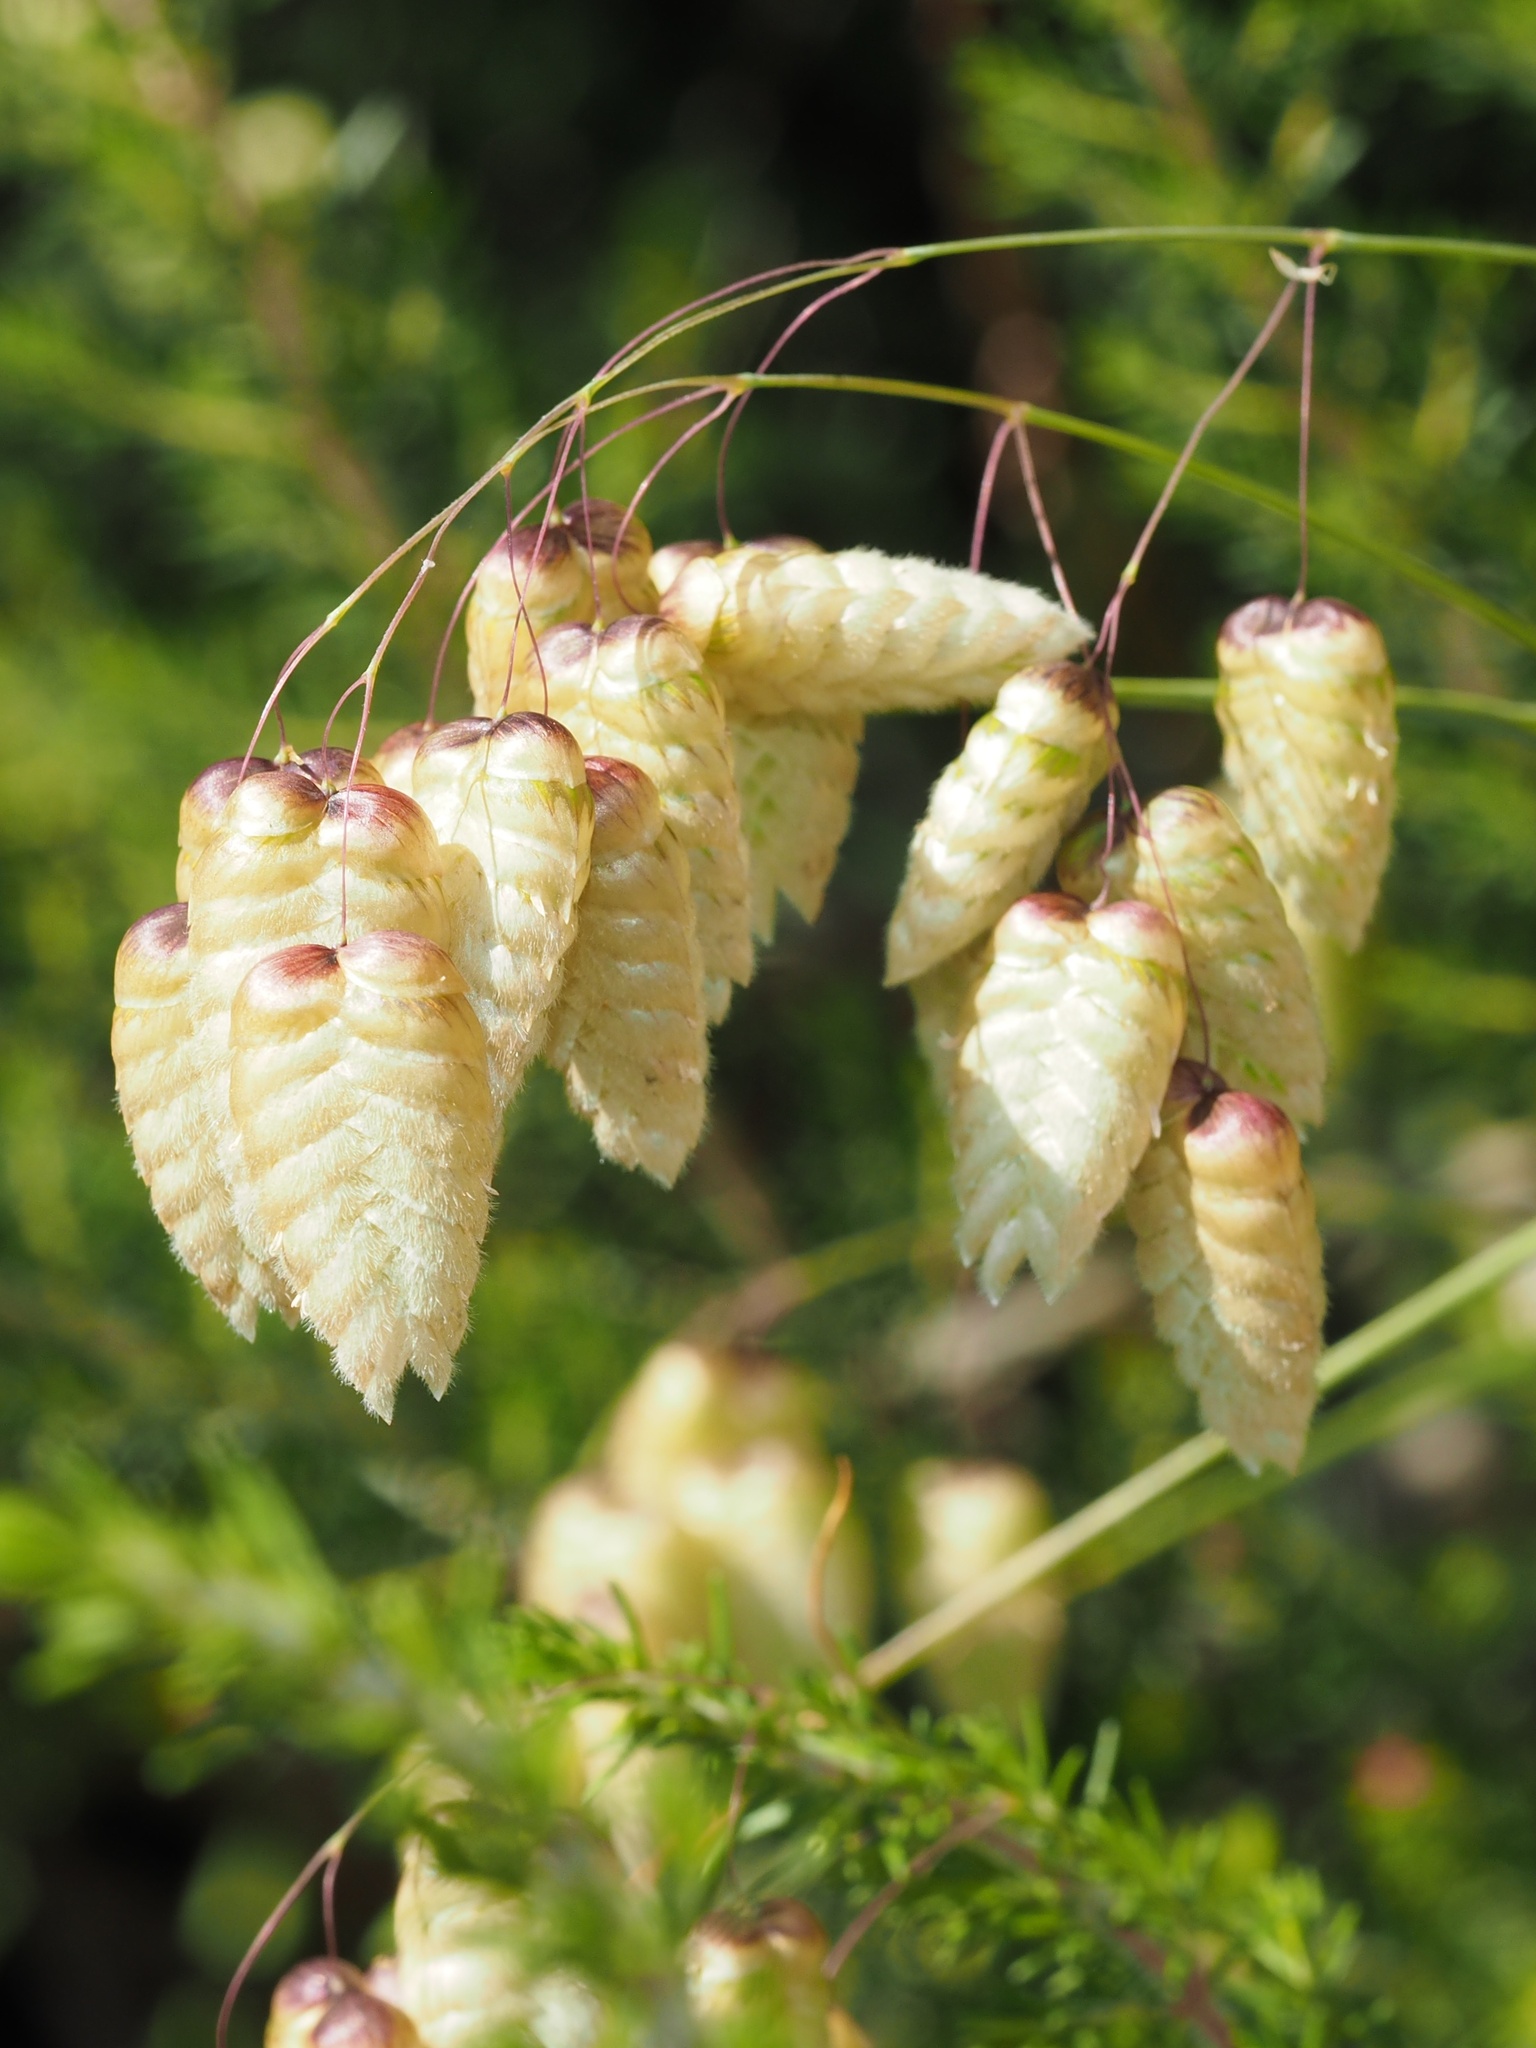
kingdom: Plantae
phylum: Tracheophyta
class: Liliopsida
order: Poales
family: Poaceae
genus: Briza
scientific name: Briza maxima
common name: Big quakinggrass
